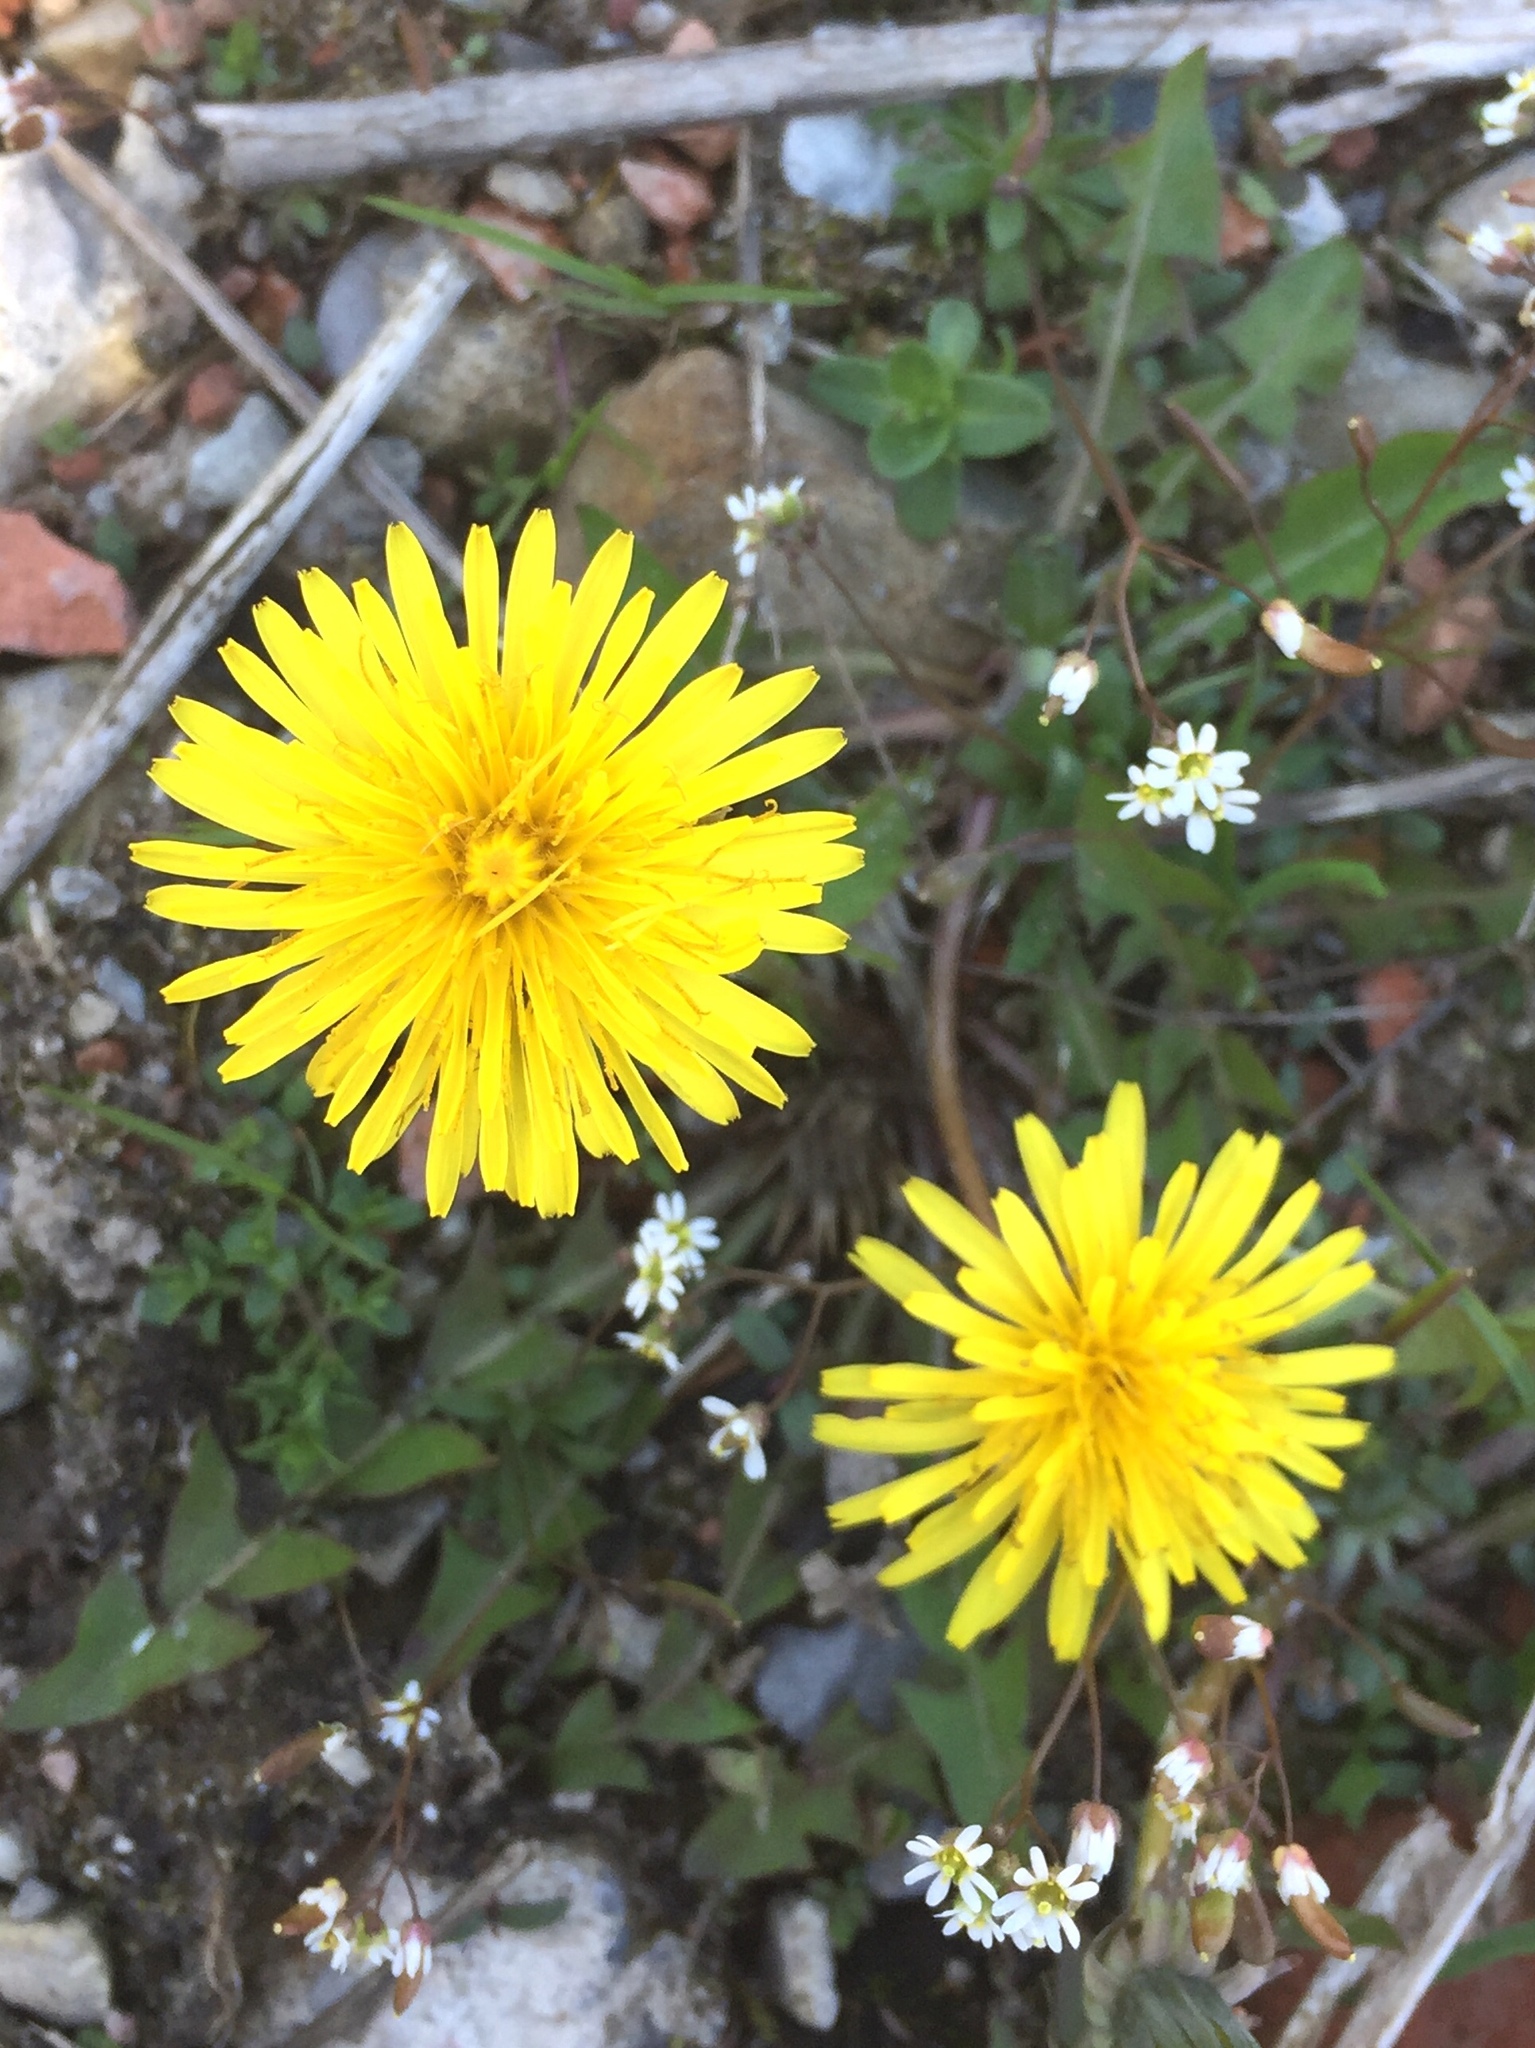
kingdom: Plantae
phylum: Tracheophyta
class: Magnoliopsida
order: Asterales
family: Asteraceae
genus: Taraxacum
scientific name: Taraxacum officinale
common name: Common dandelion
